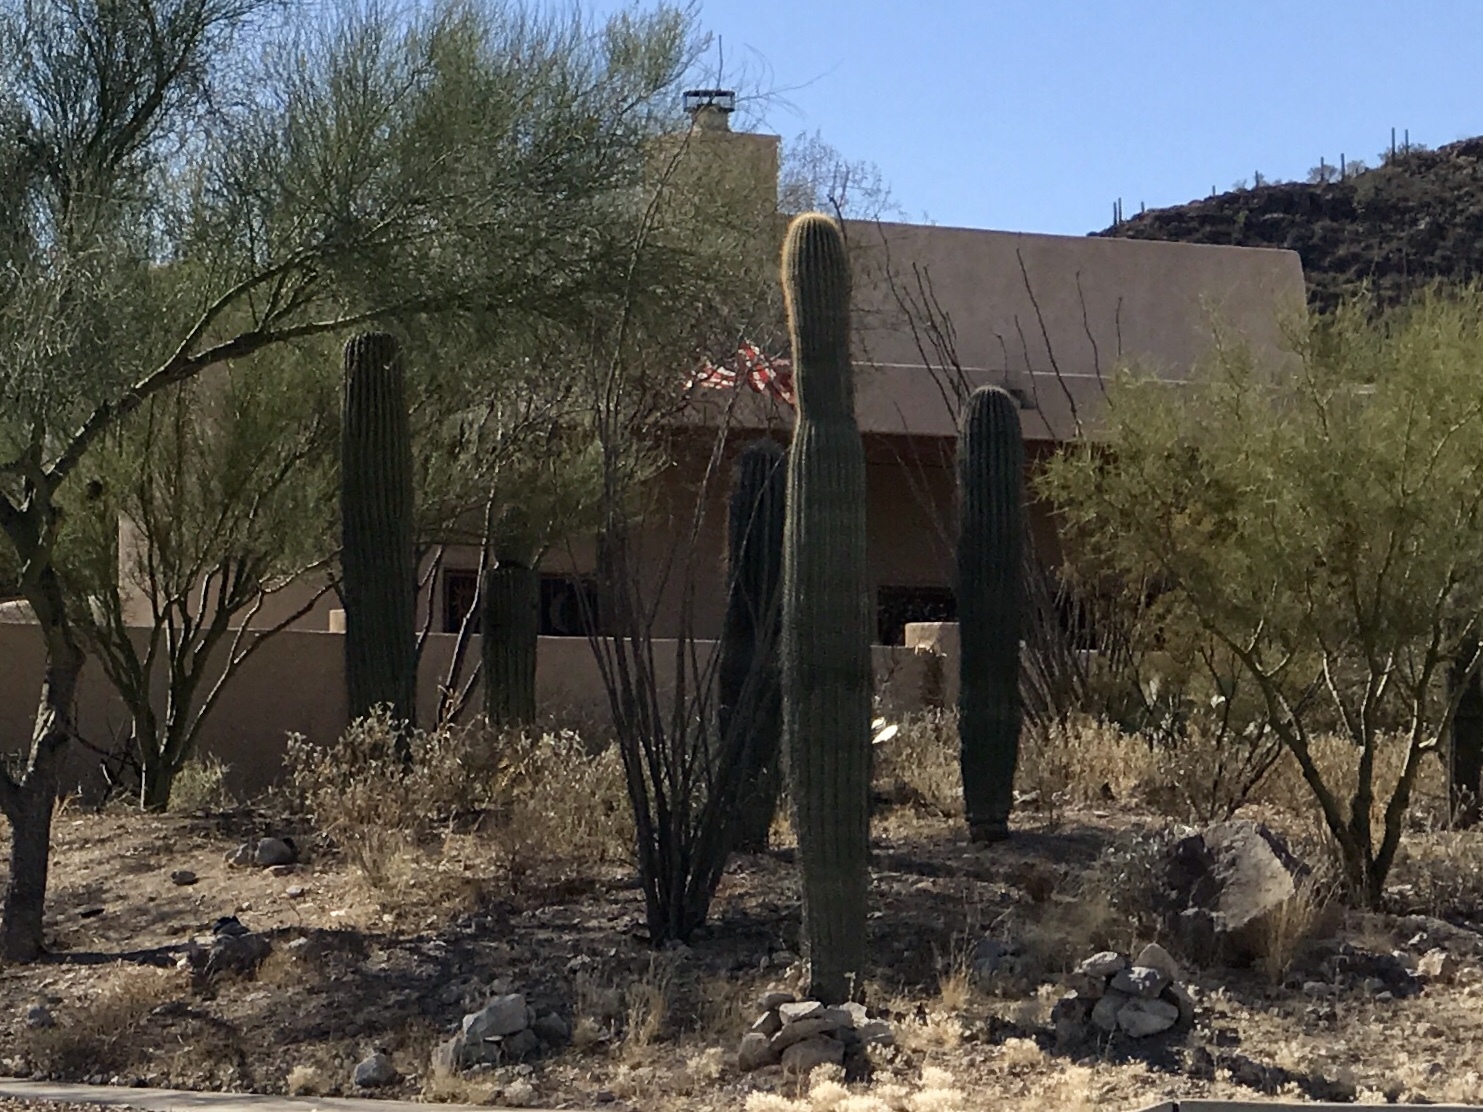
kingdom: Plantae
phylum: Tracheophyta
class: Magnoliopsida
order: Caryophyllales
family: Cactaceae
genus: Carnegiea
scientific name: Carnegiea gigantea
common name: Saguaro
